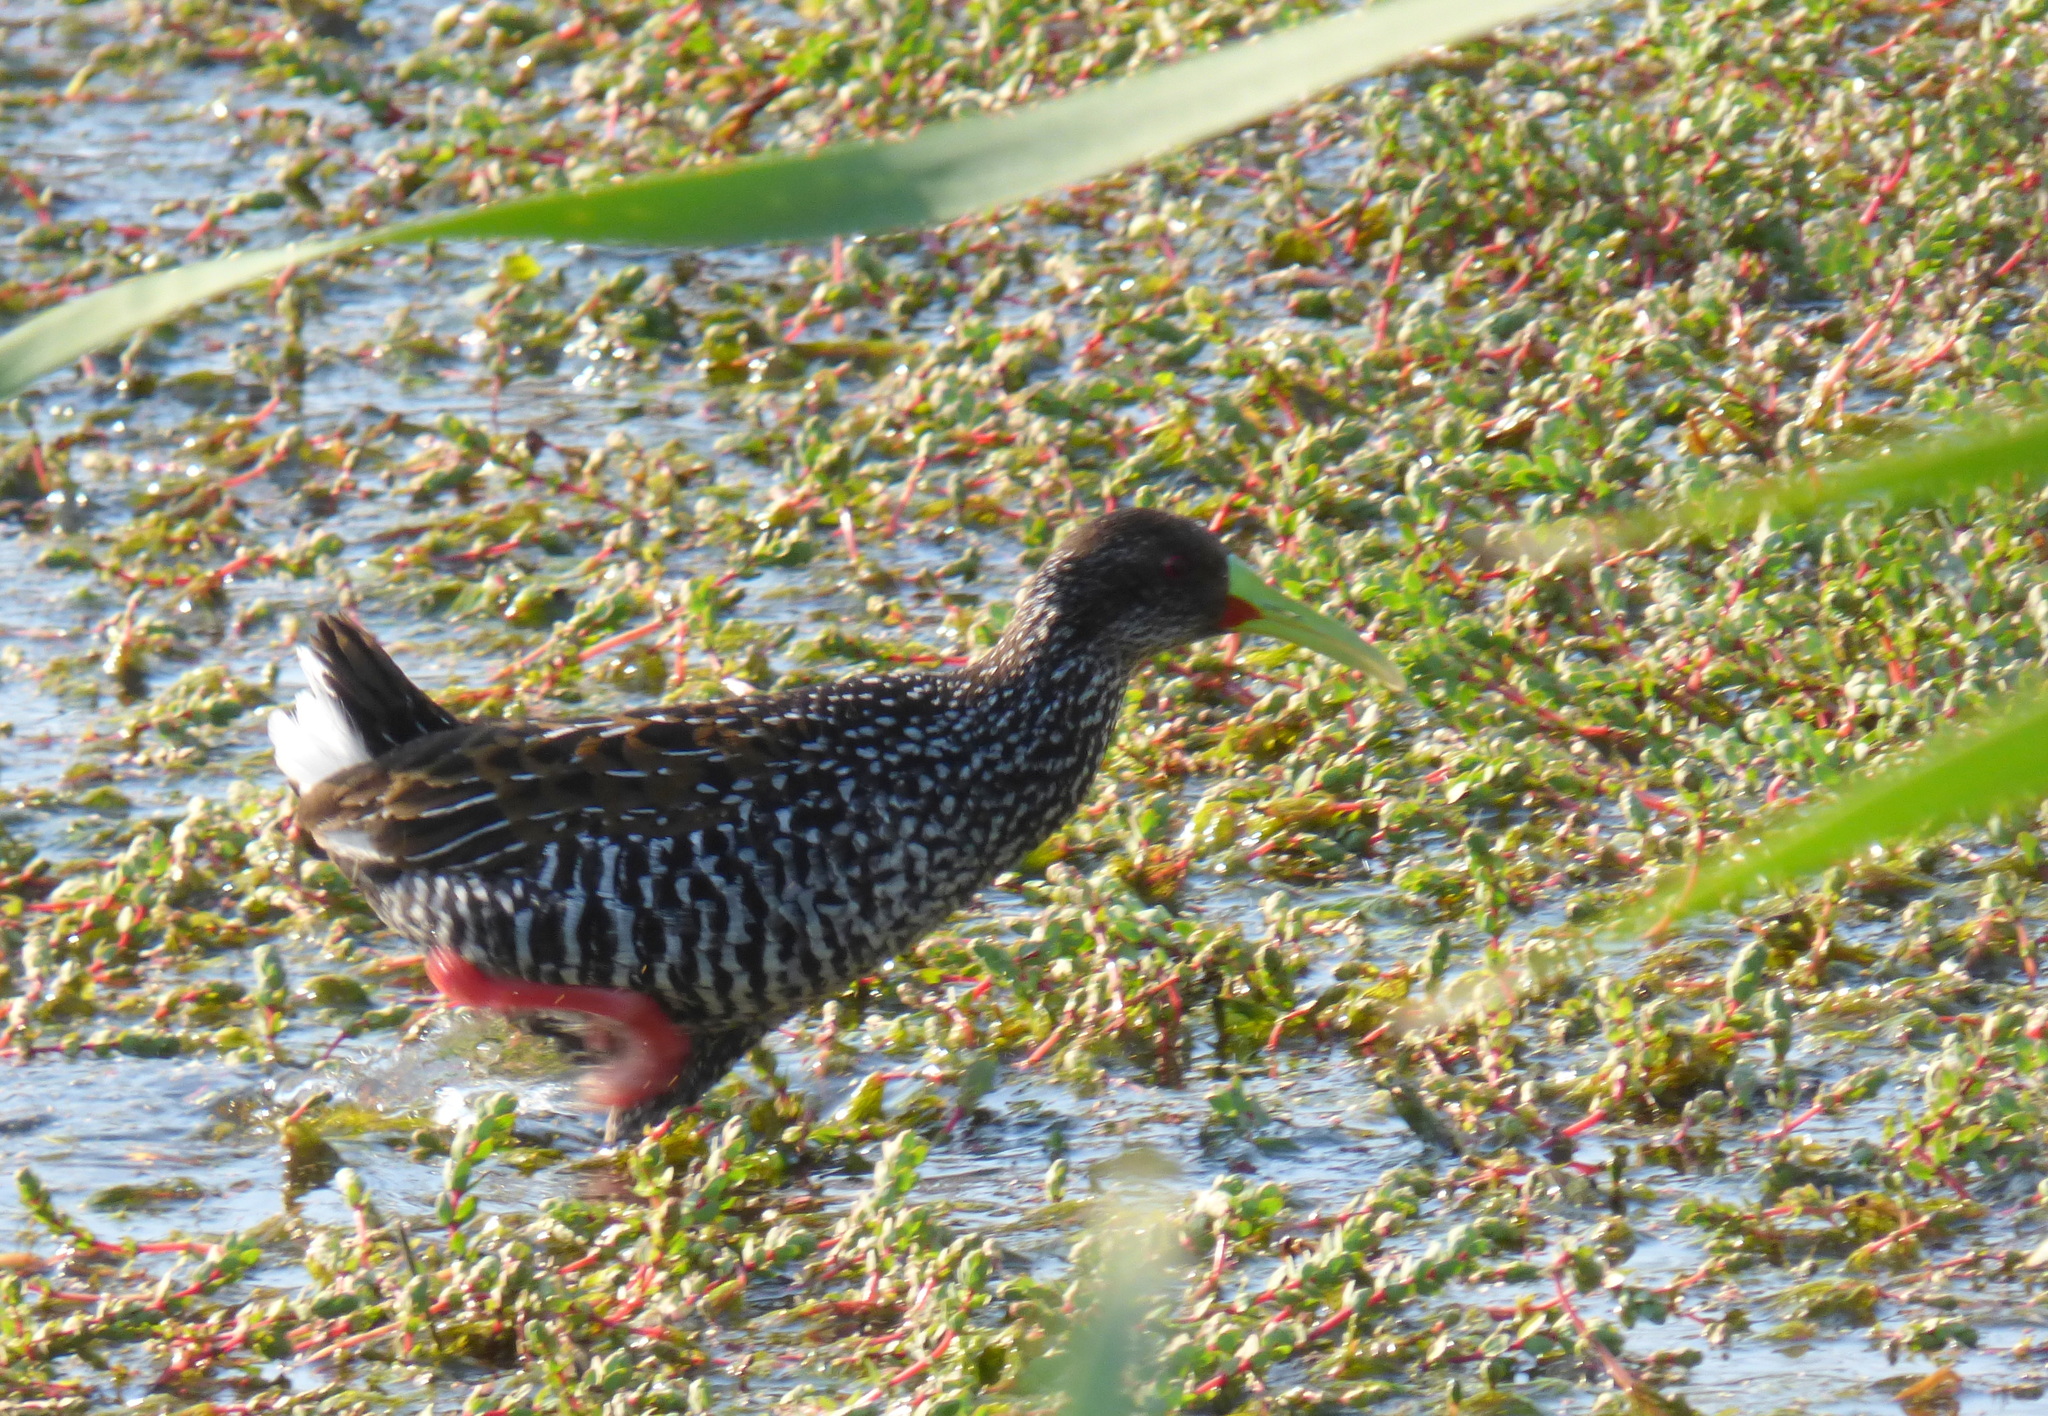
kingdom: Animalia
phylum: Chordata
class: Aves
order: Gruiformes
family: Rallidae
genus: Pardirallus
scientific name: Pardirallus maculatus
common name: Spotted rail
